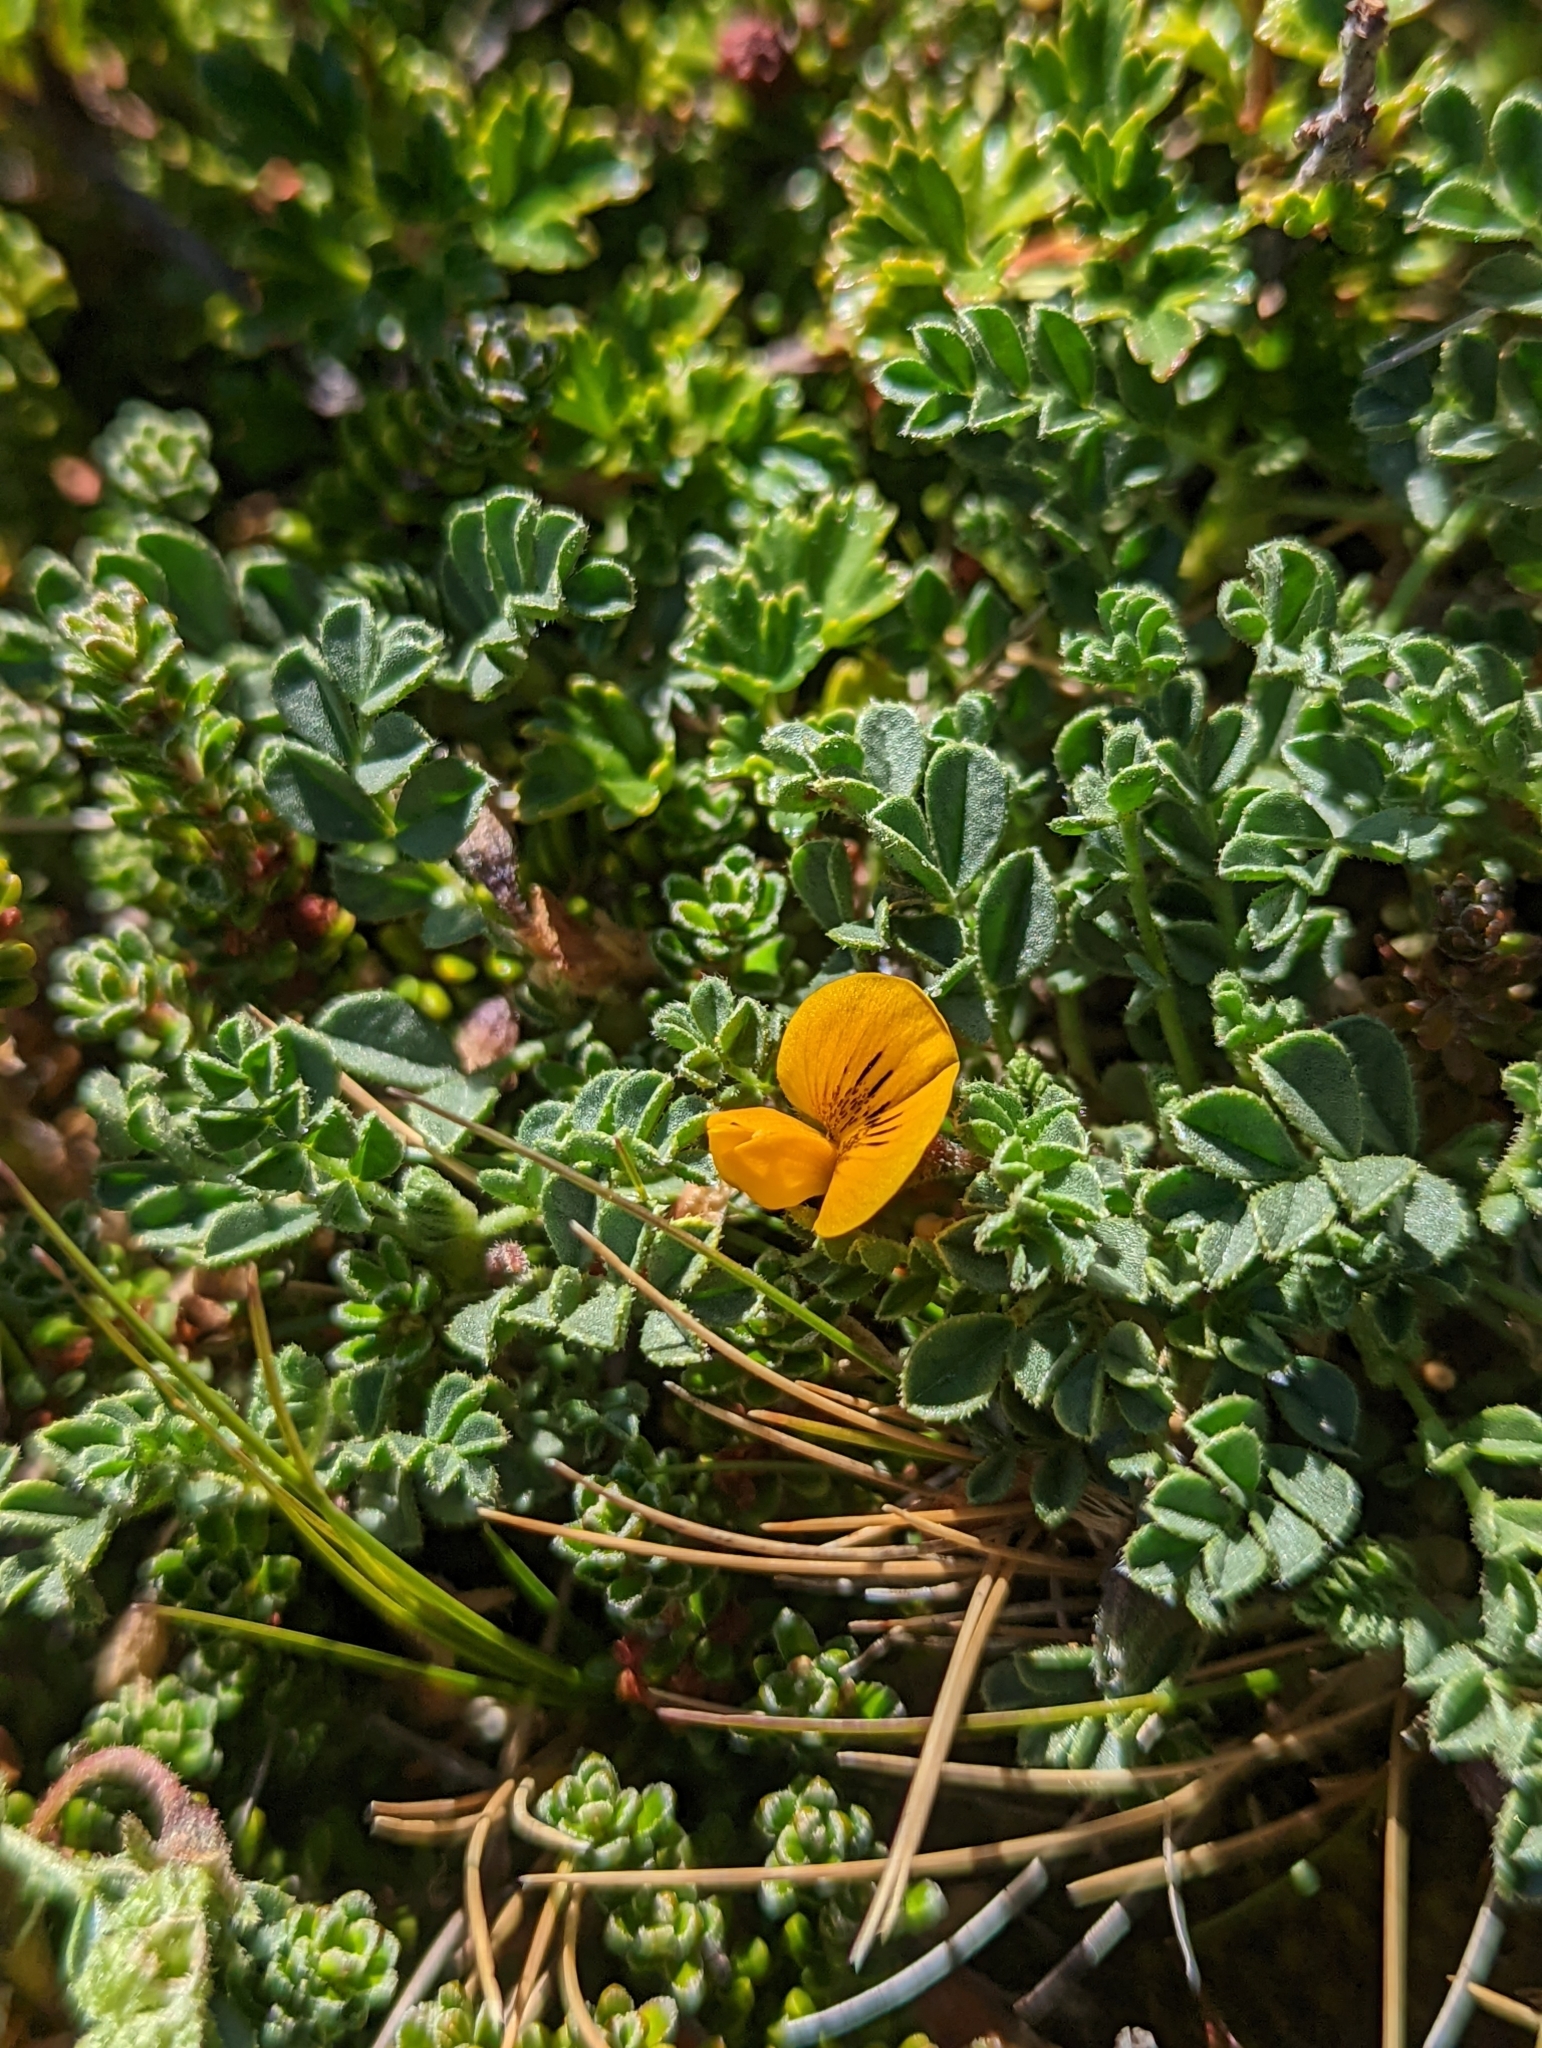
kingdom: Plantae
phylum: Tracheophyta
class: Magnoliopsida
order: Fabales
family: Fabaceae
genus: Adesmia
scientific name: Adesmia pumila
